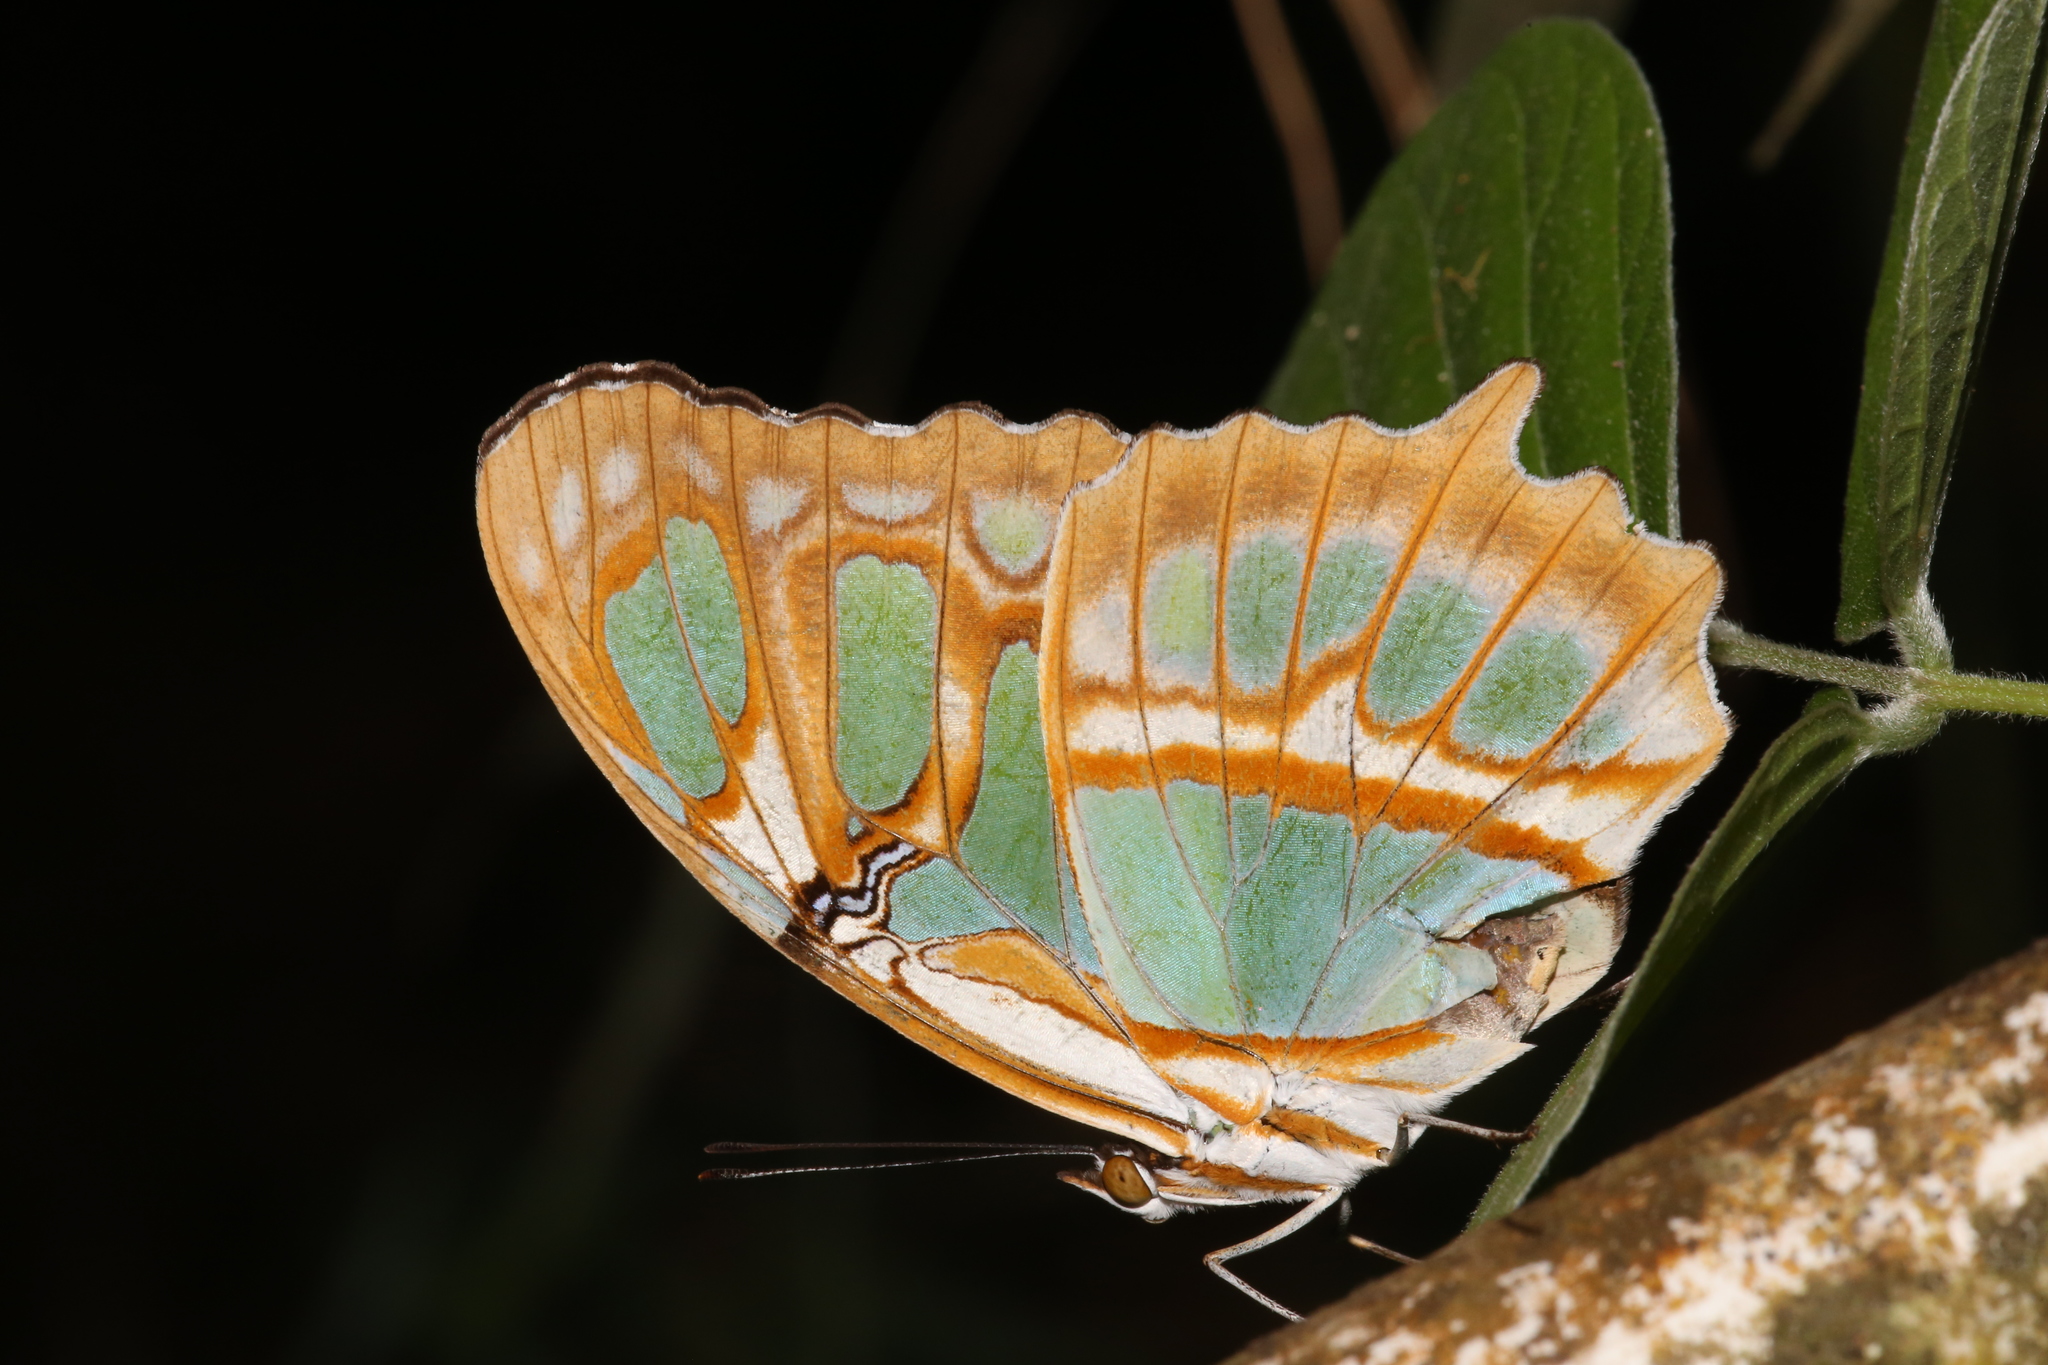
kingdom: Animalia
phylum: Arthropoda
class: Insecta
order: Lepidoptera
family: Nymphalidae
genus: Siproeta
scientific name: Siproeta stelenes
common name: Malachite
